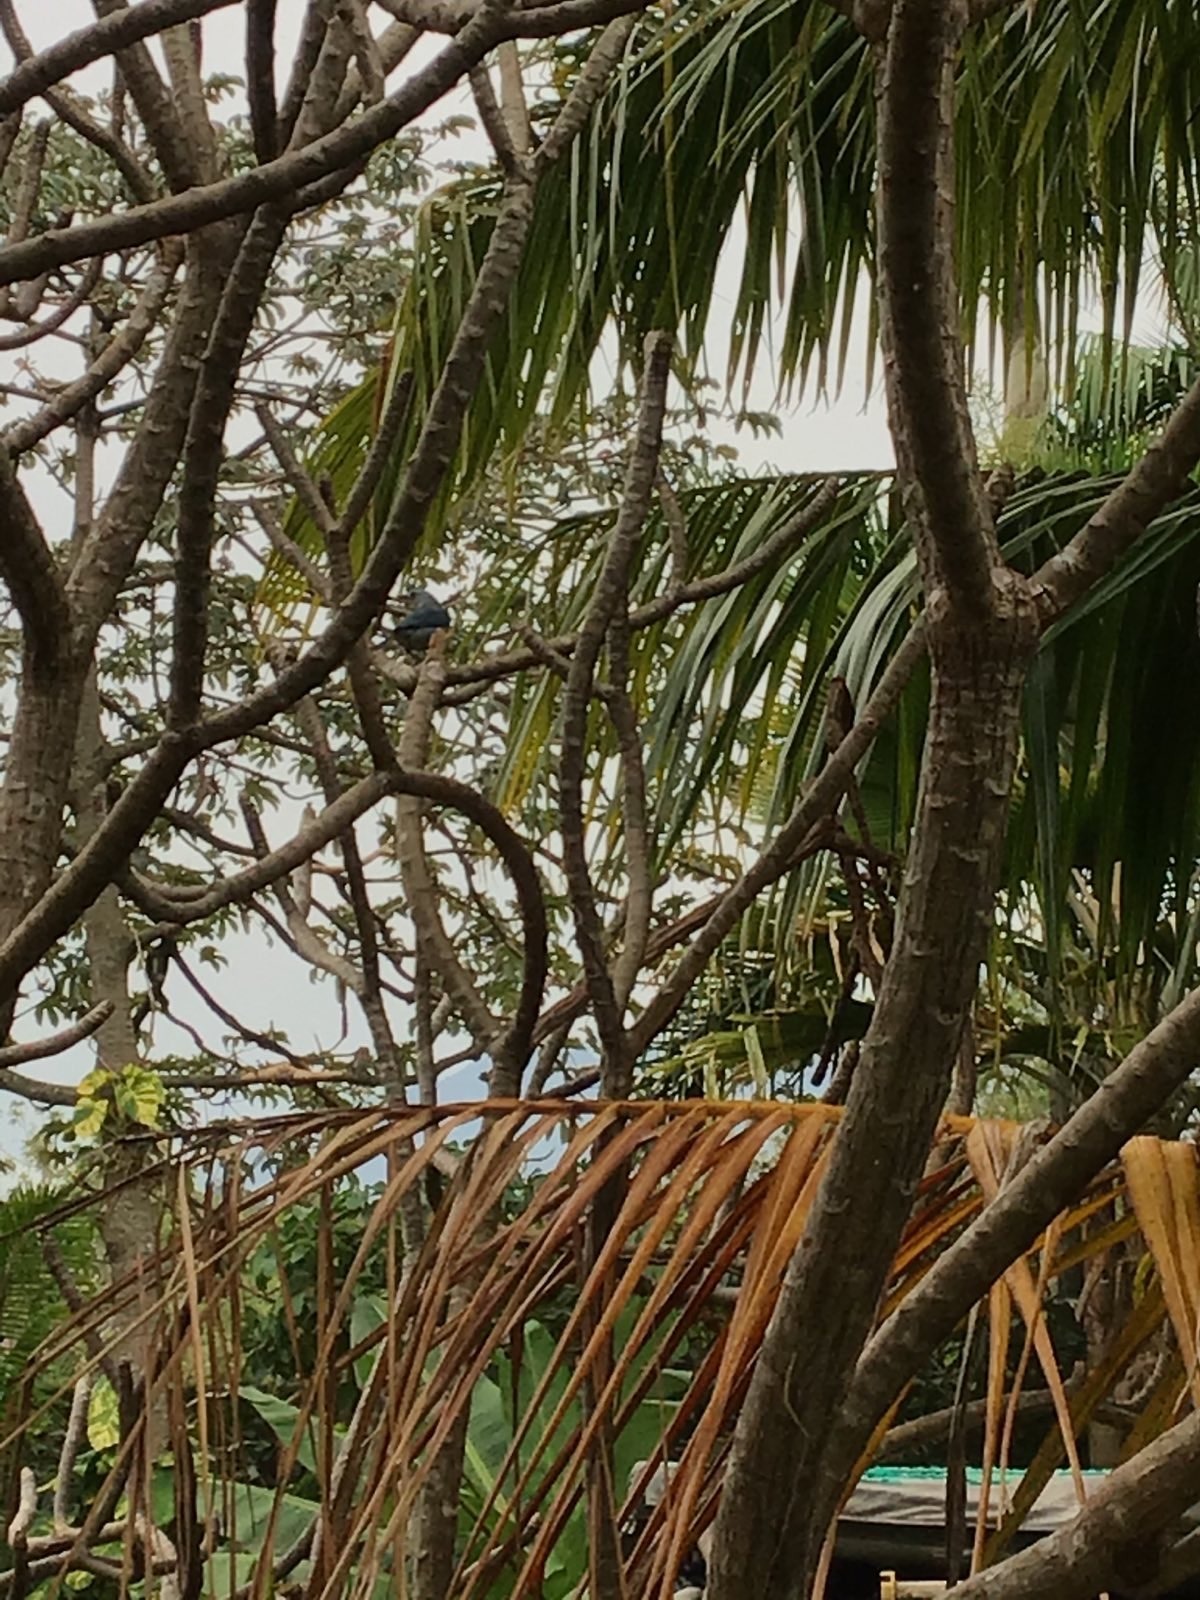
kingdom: Animalia
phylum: Chordata
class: Aves
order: Passeriformes
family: Thraupidae
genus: Thraupis
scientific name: Thraupis episcopus
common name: Blue-grey tanager
